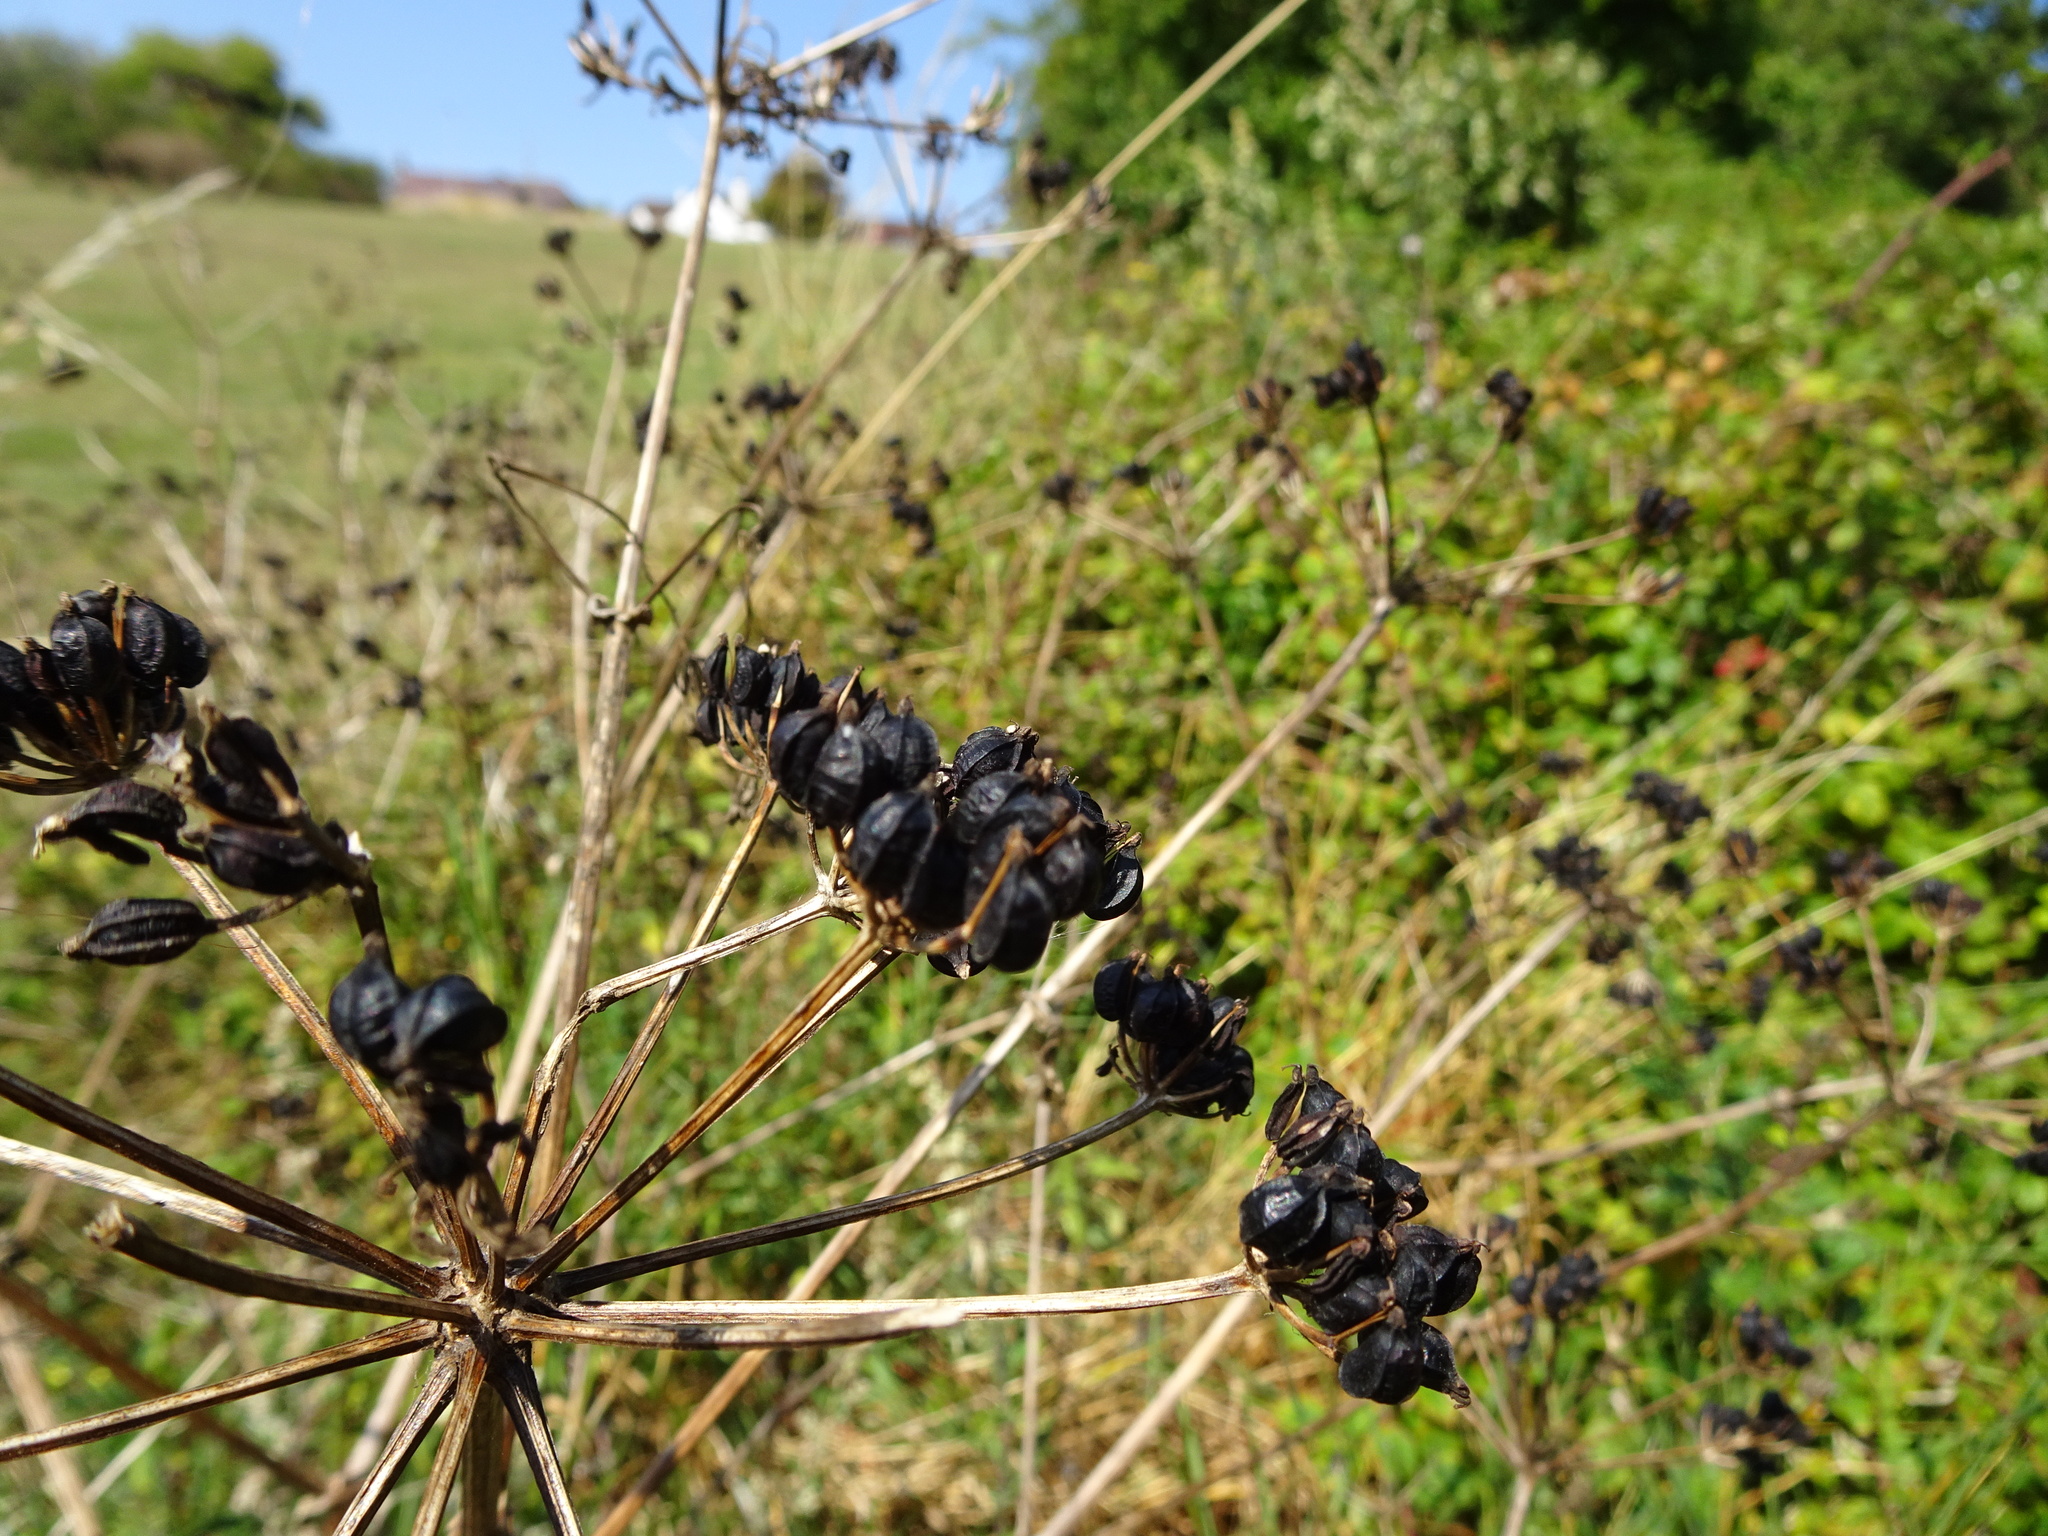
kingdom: Plantae
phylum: Tracheophyta
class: Magnoliopsida
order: Apiales
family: Apiaceae
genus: Smyrnium
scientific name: Smyrnium olusatrum
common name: Alexanders
